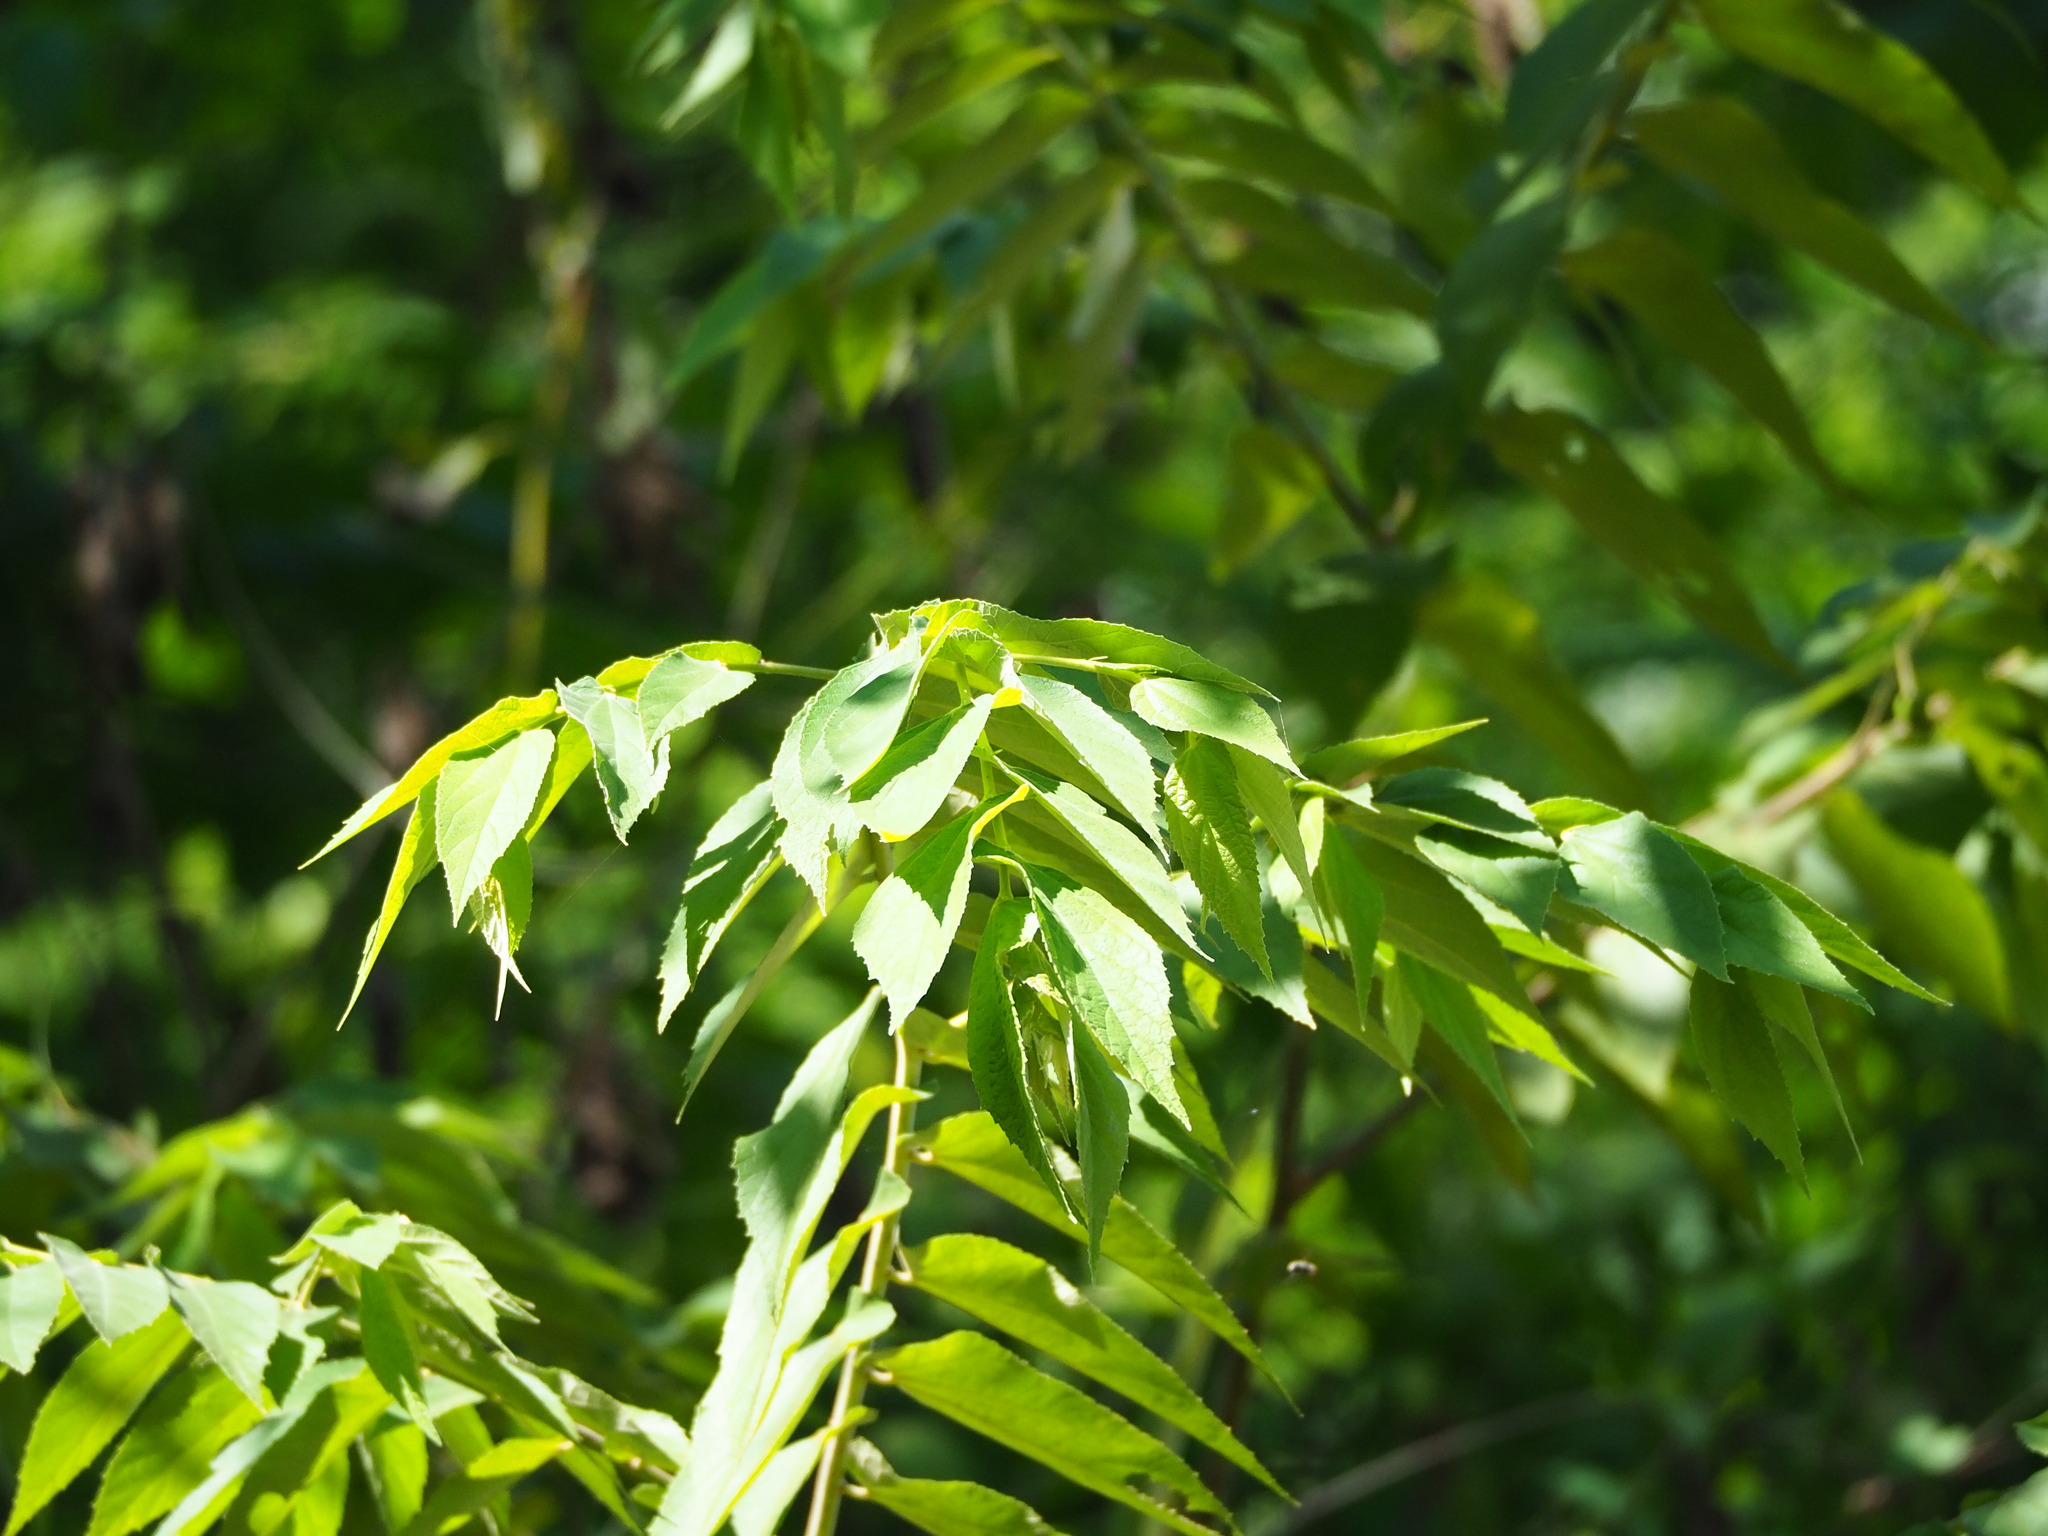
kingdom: Plantae
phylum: Tracheophyta
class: Magnoliopsida
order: Malvales
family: Muntingiaceae
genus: Muntingia
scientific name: Muntingia calabura
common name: Strawberrytree
